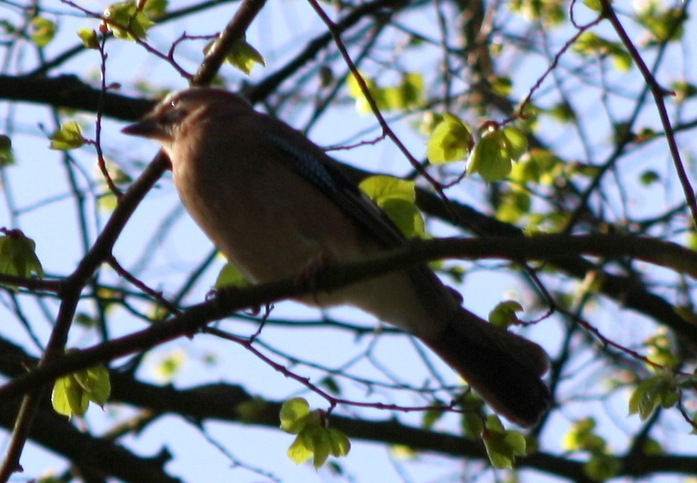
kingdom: Animalia
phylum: Chordata
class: Aves
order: Passeriformes
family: Corvidae
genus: Garrulus
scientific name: Garrulus glandarius
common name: Eurasian jay
